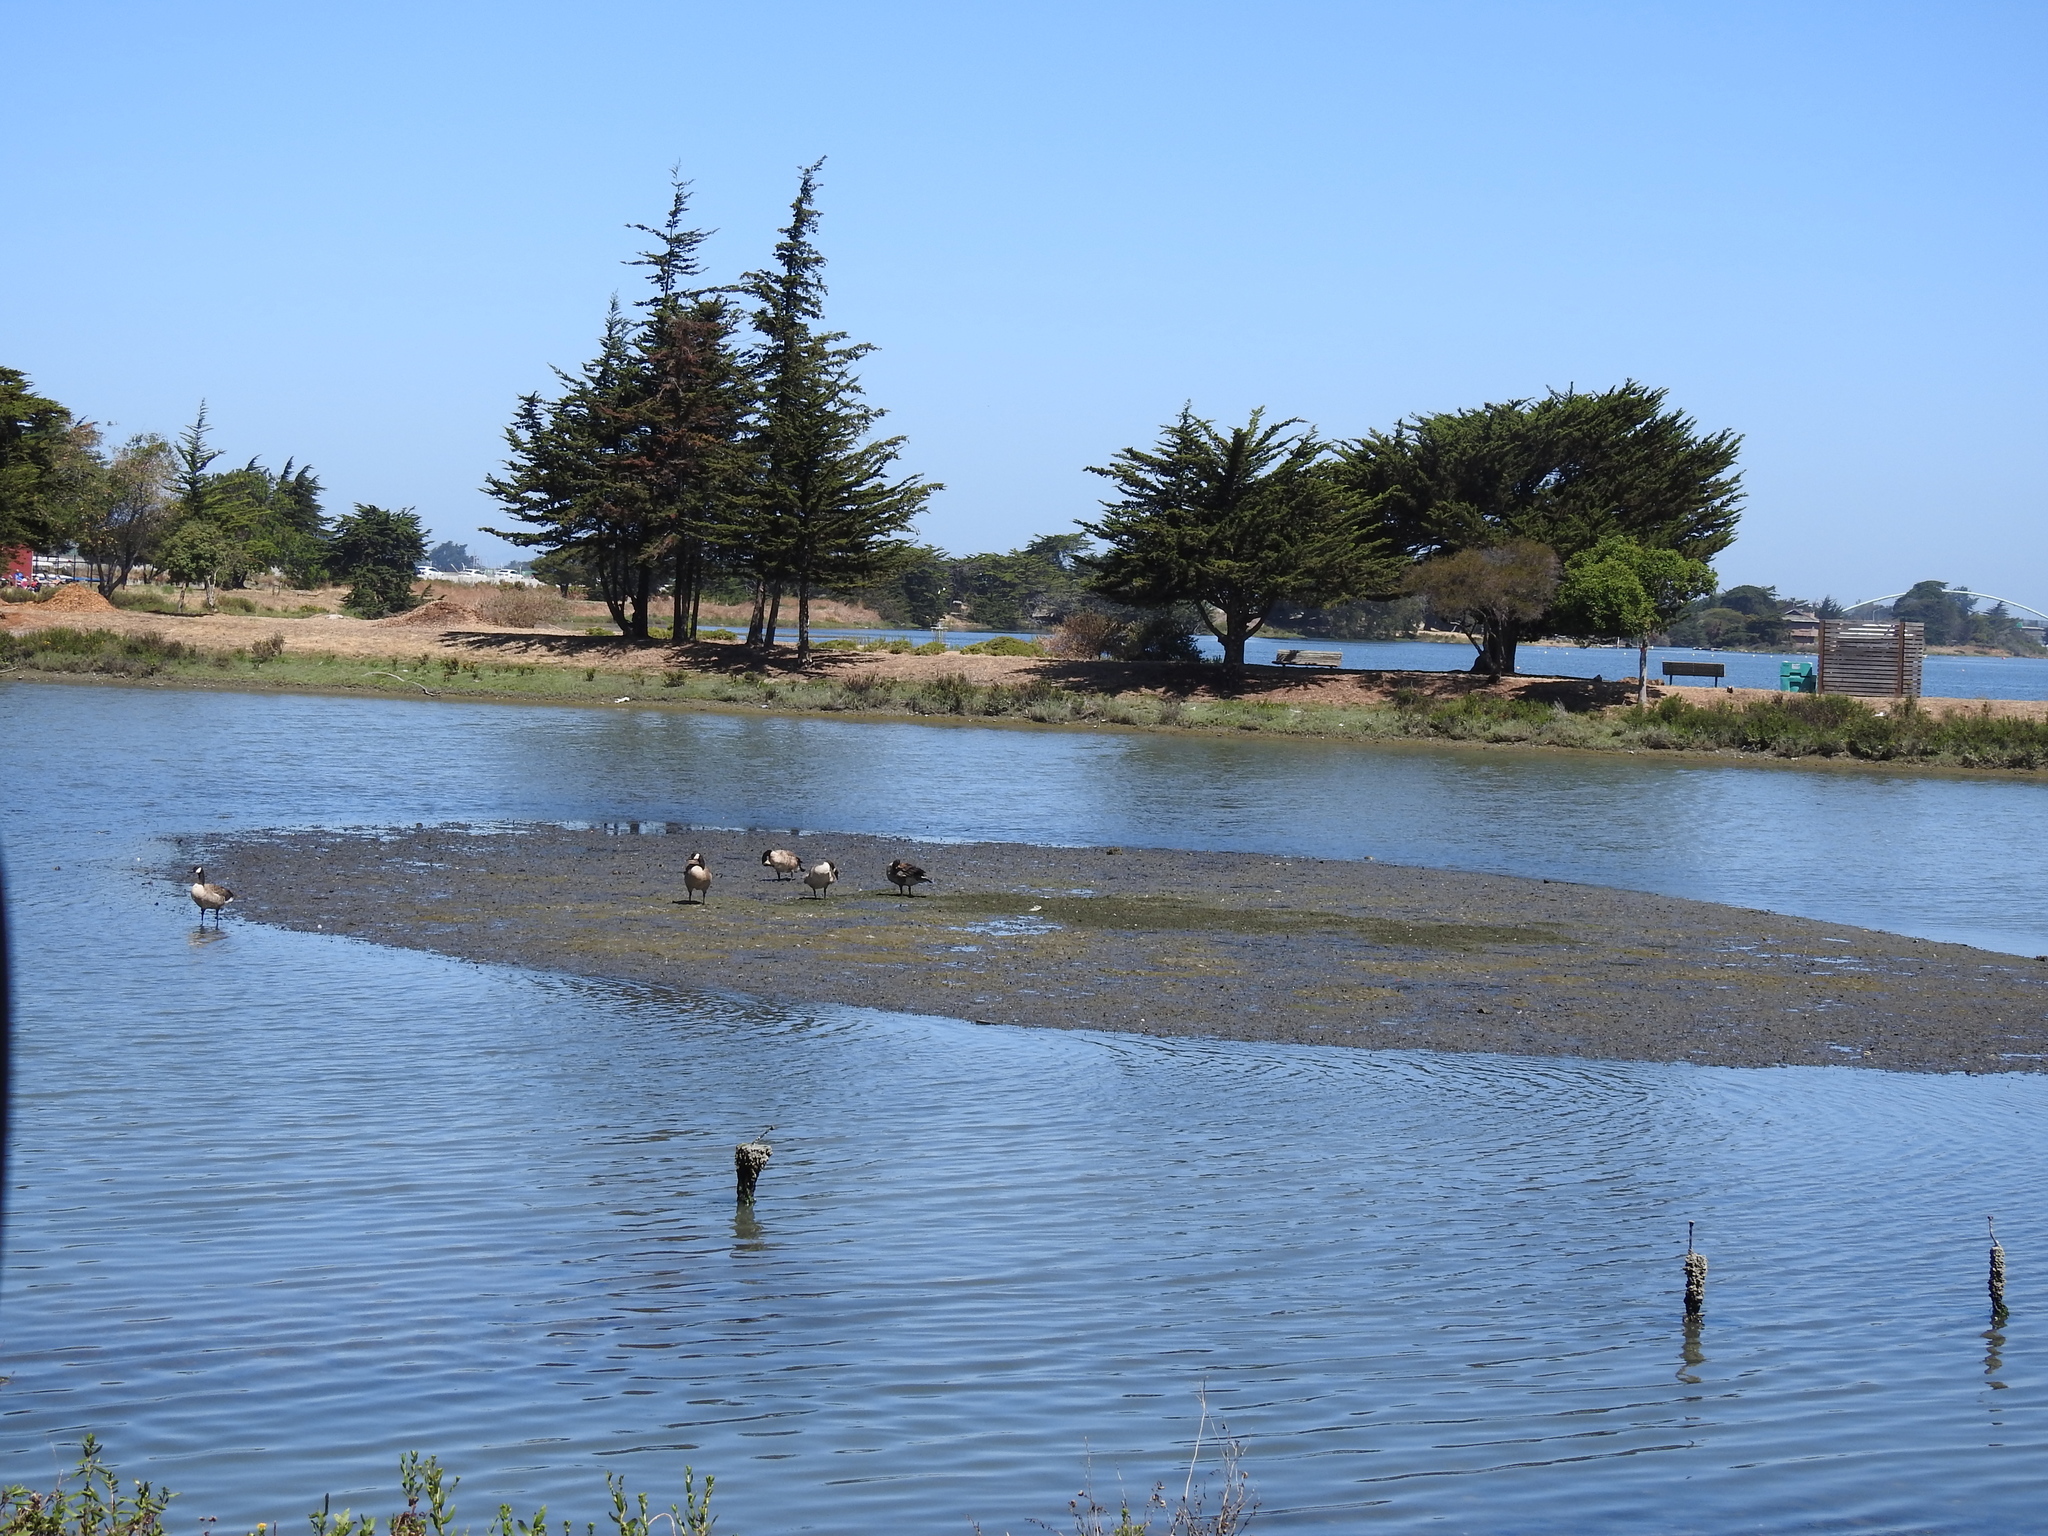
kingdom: Animalia
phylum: Chordata
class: Aves
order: Anseriformes
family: Anatidae
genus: Branta
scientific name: Branta canadensis
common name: Canada goose
